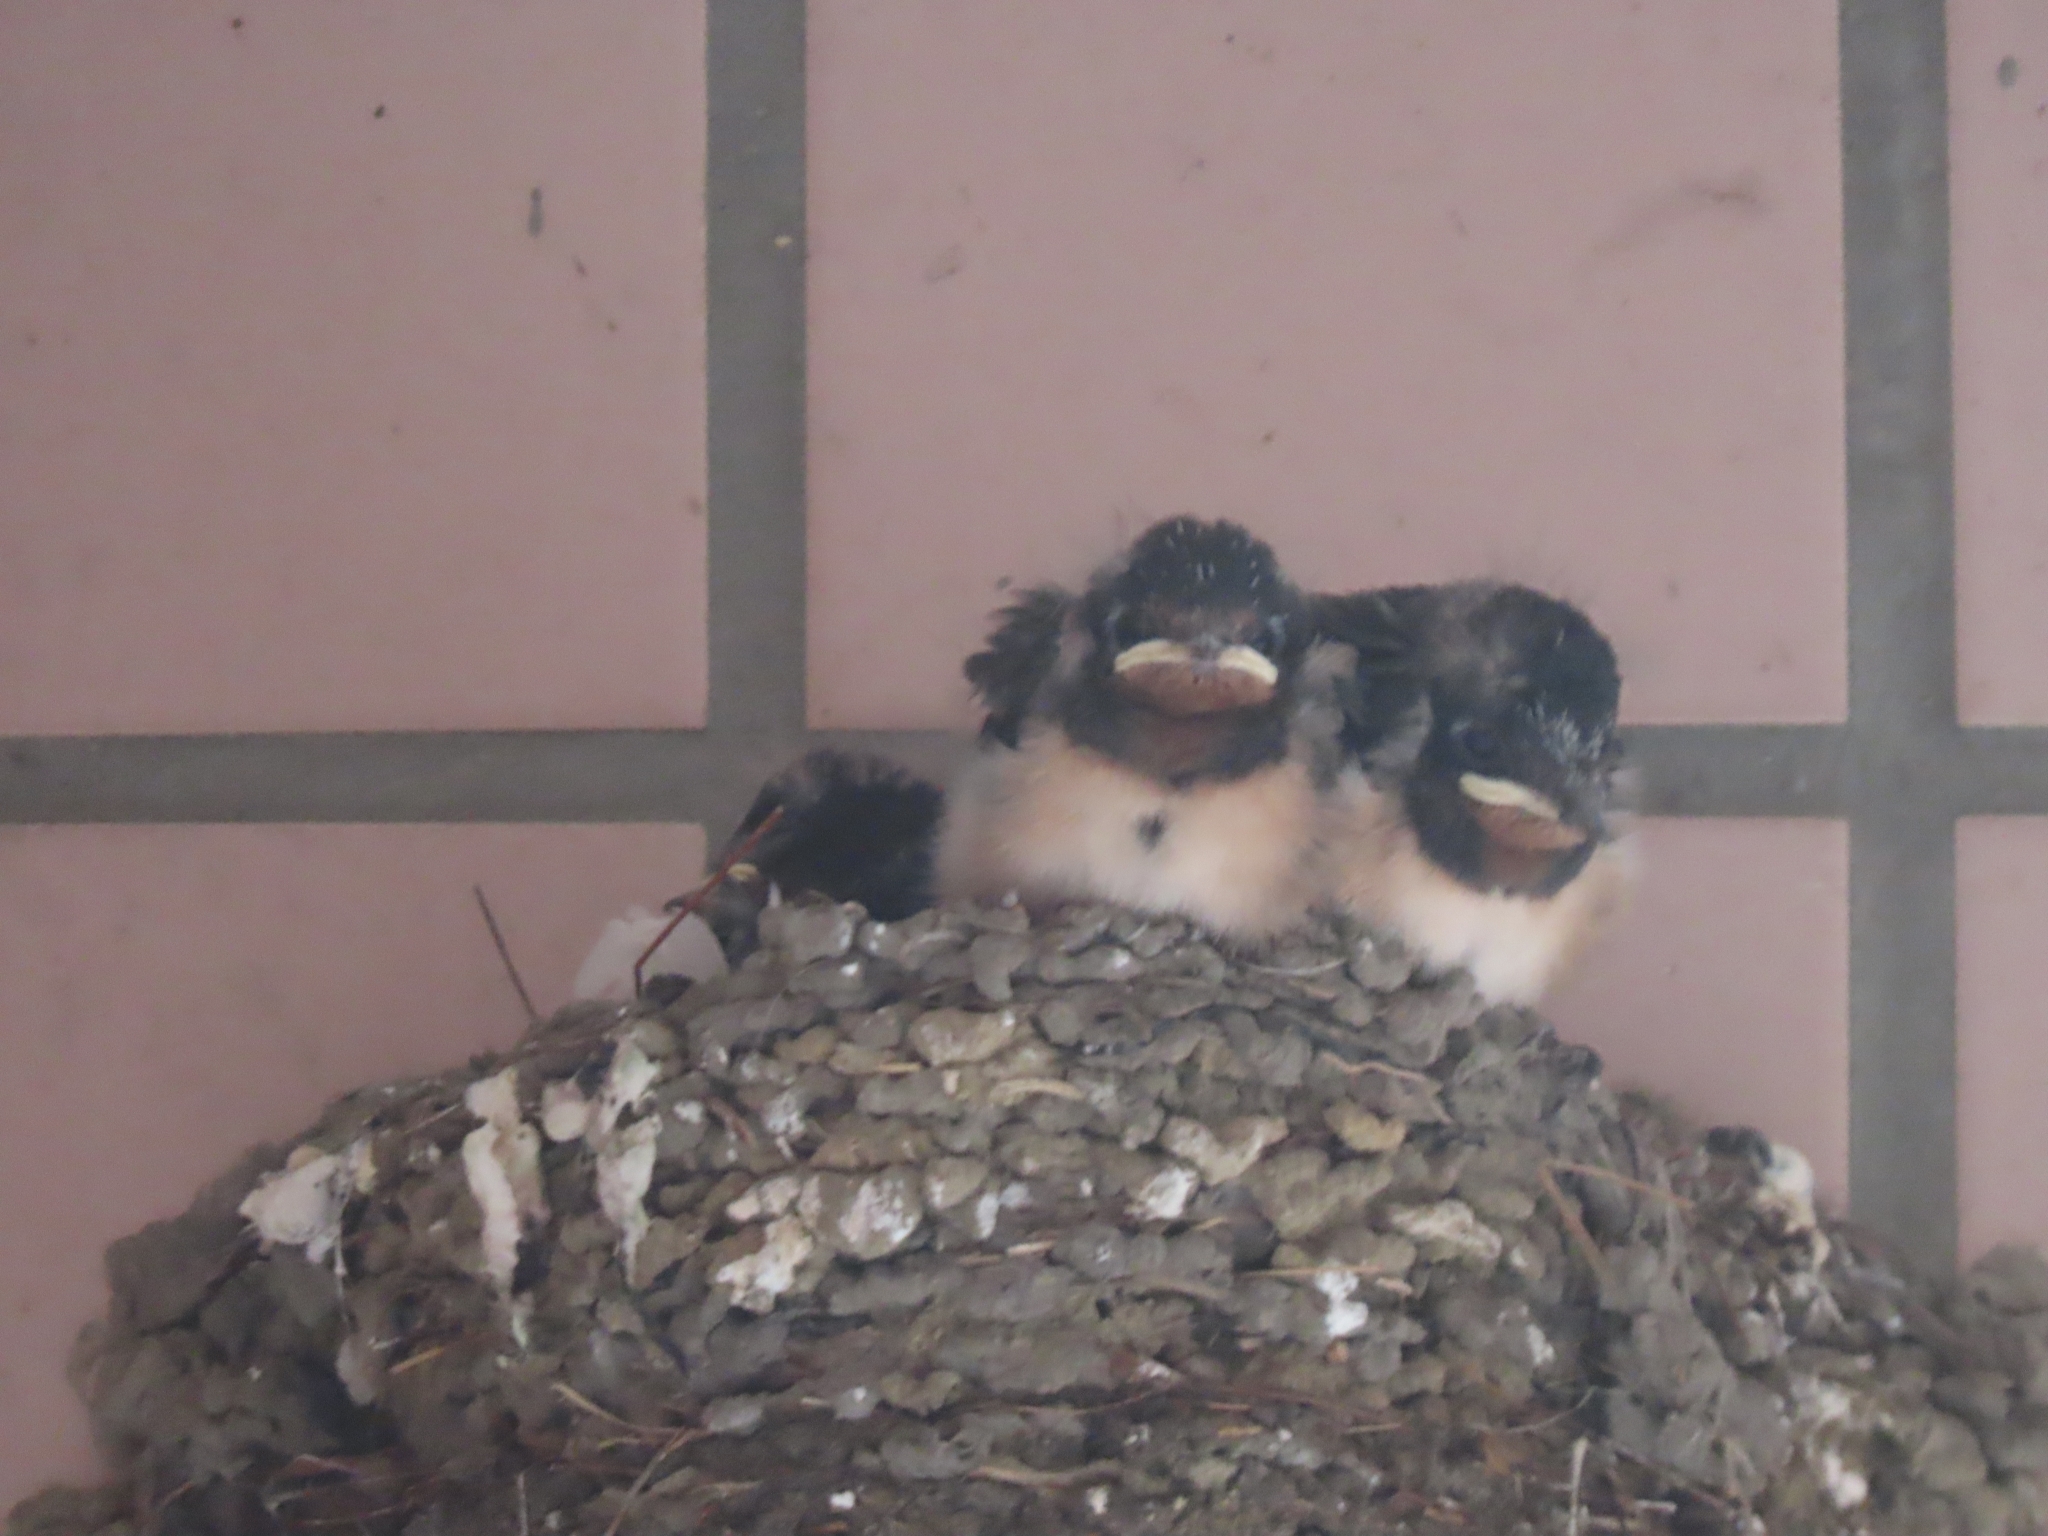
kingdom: Animalia
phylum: Chordata
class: Aves
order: Passeriformes
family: Hirundinidae
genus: Hirundo
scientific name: Hirundo rustica
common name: Barn swallow
